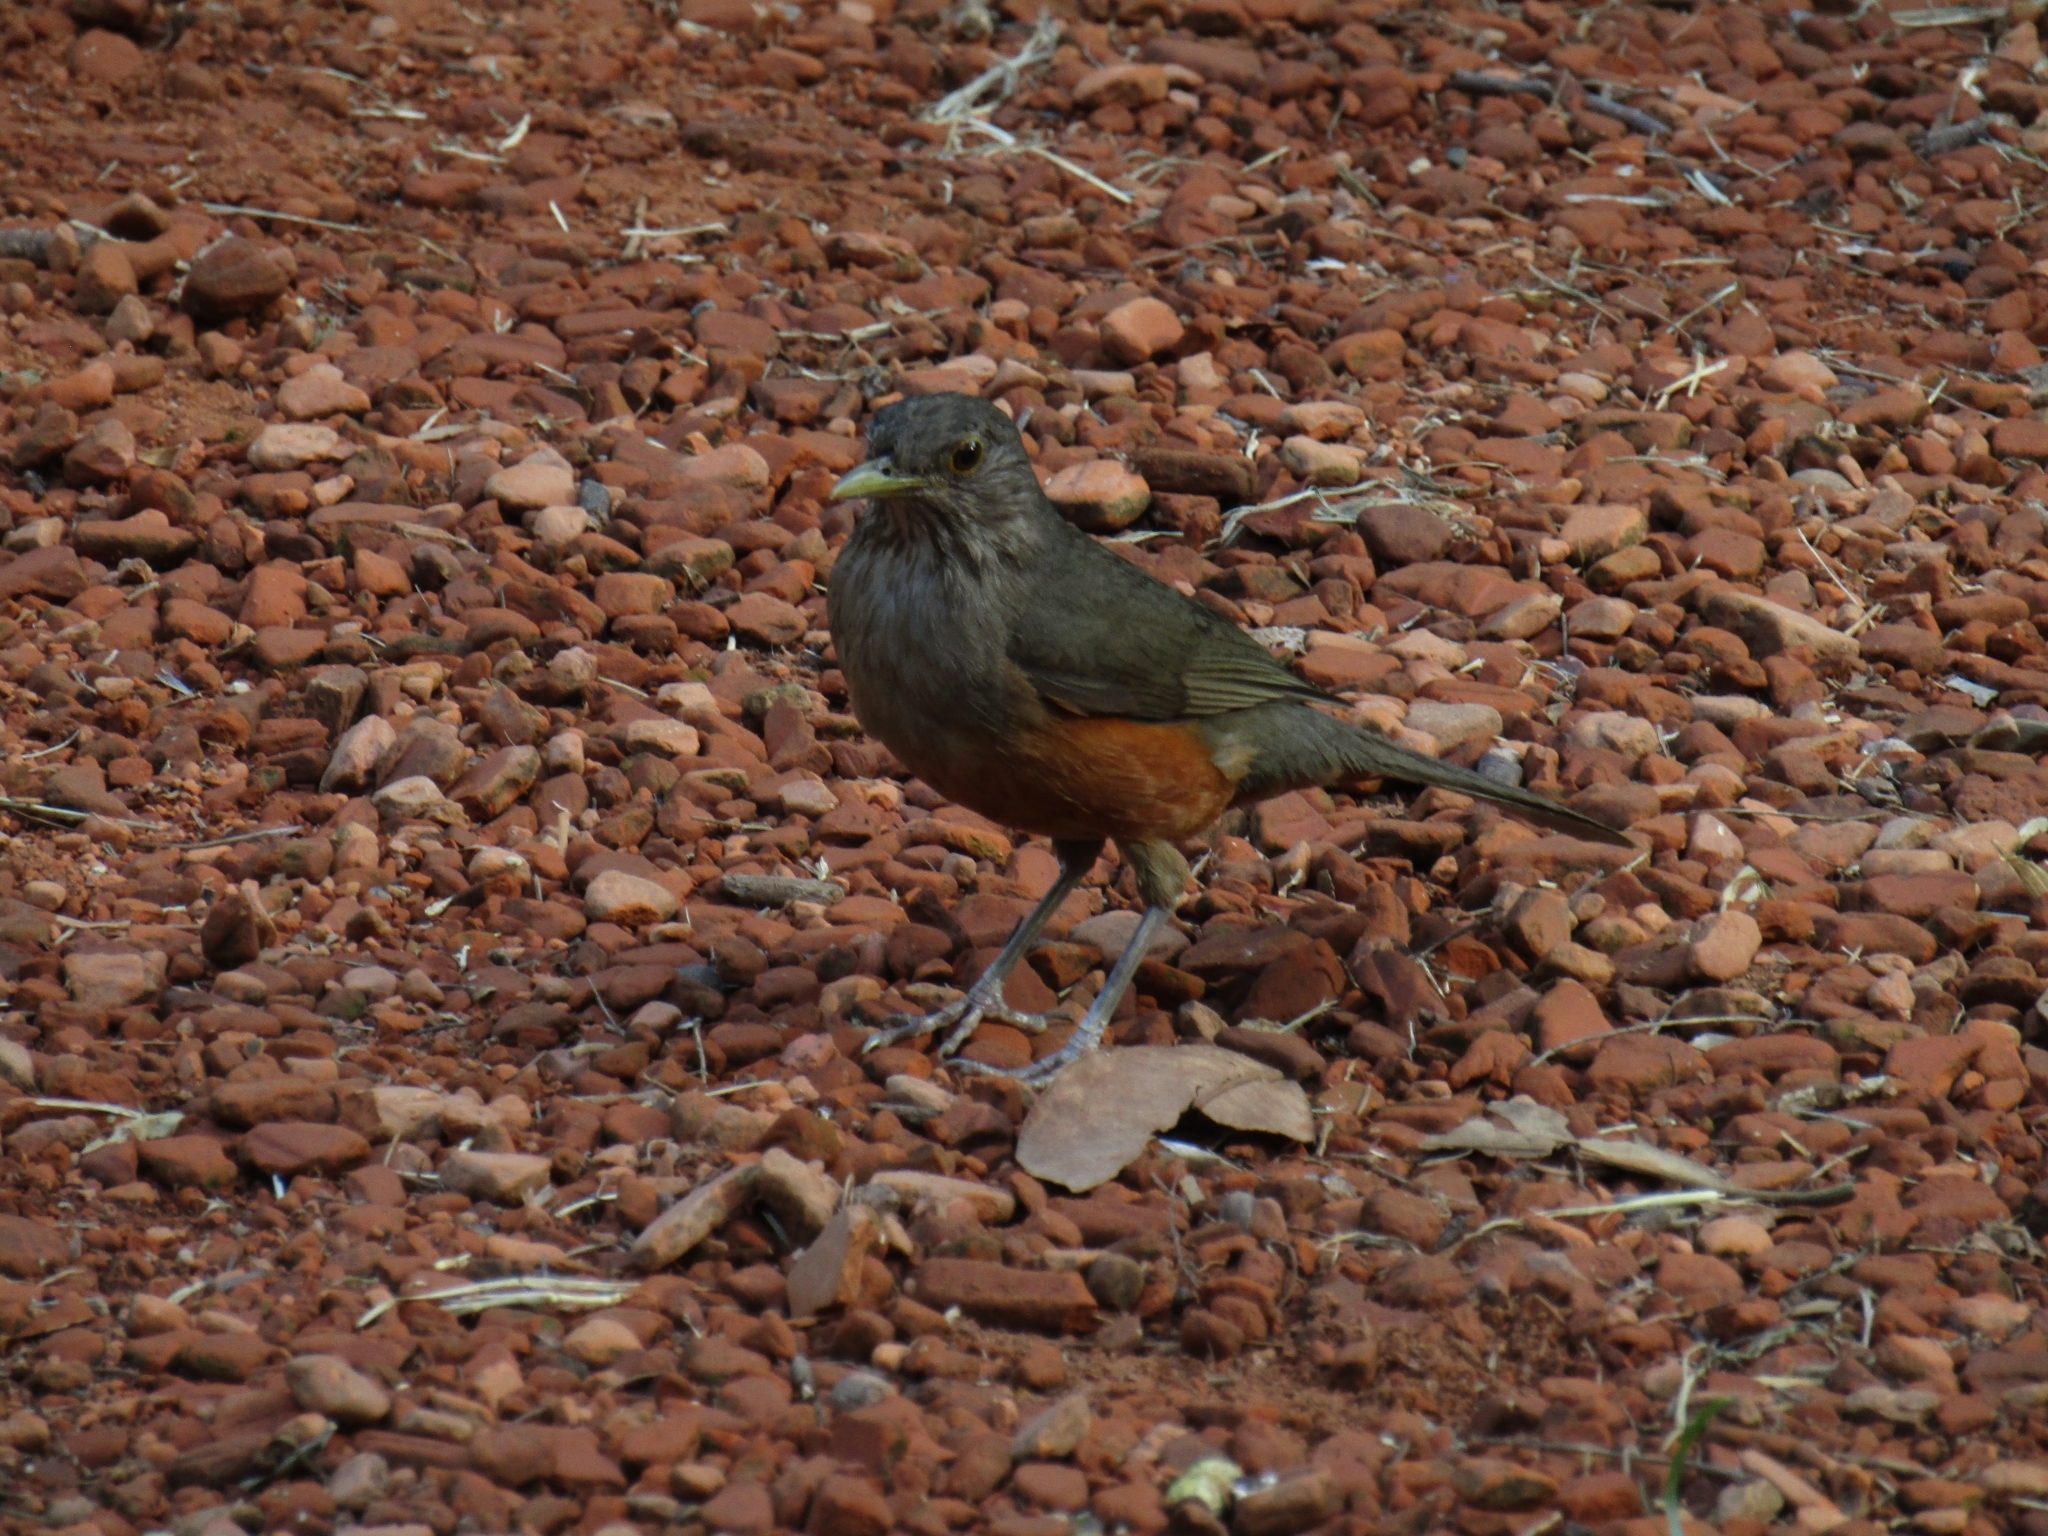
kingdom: Animalia
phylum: Chordata
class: Aves
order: Passeriformes
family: Turdidae
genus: Turdus
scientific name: Turdus rufiventris
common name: Rufous-bellied thrush
